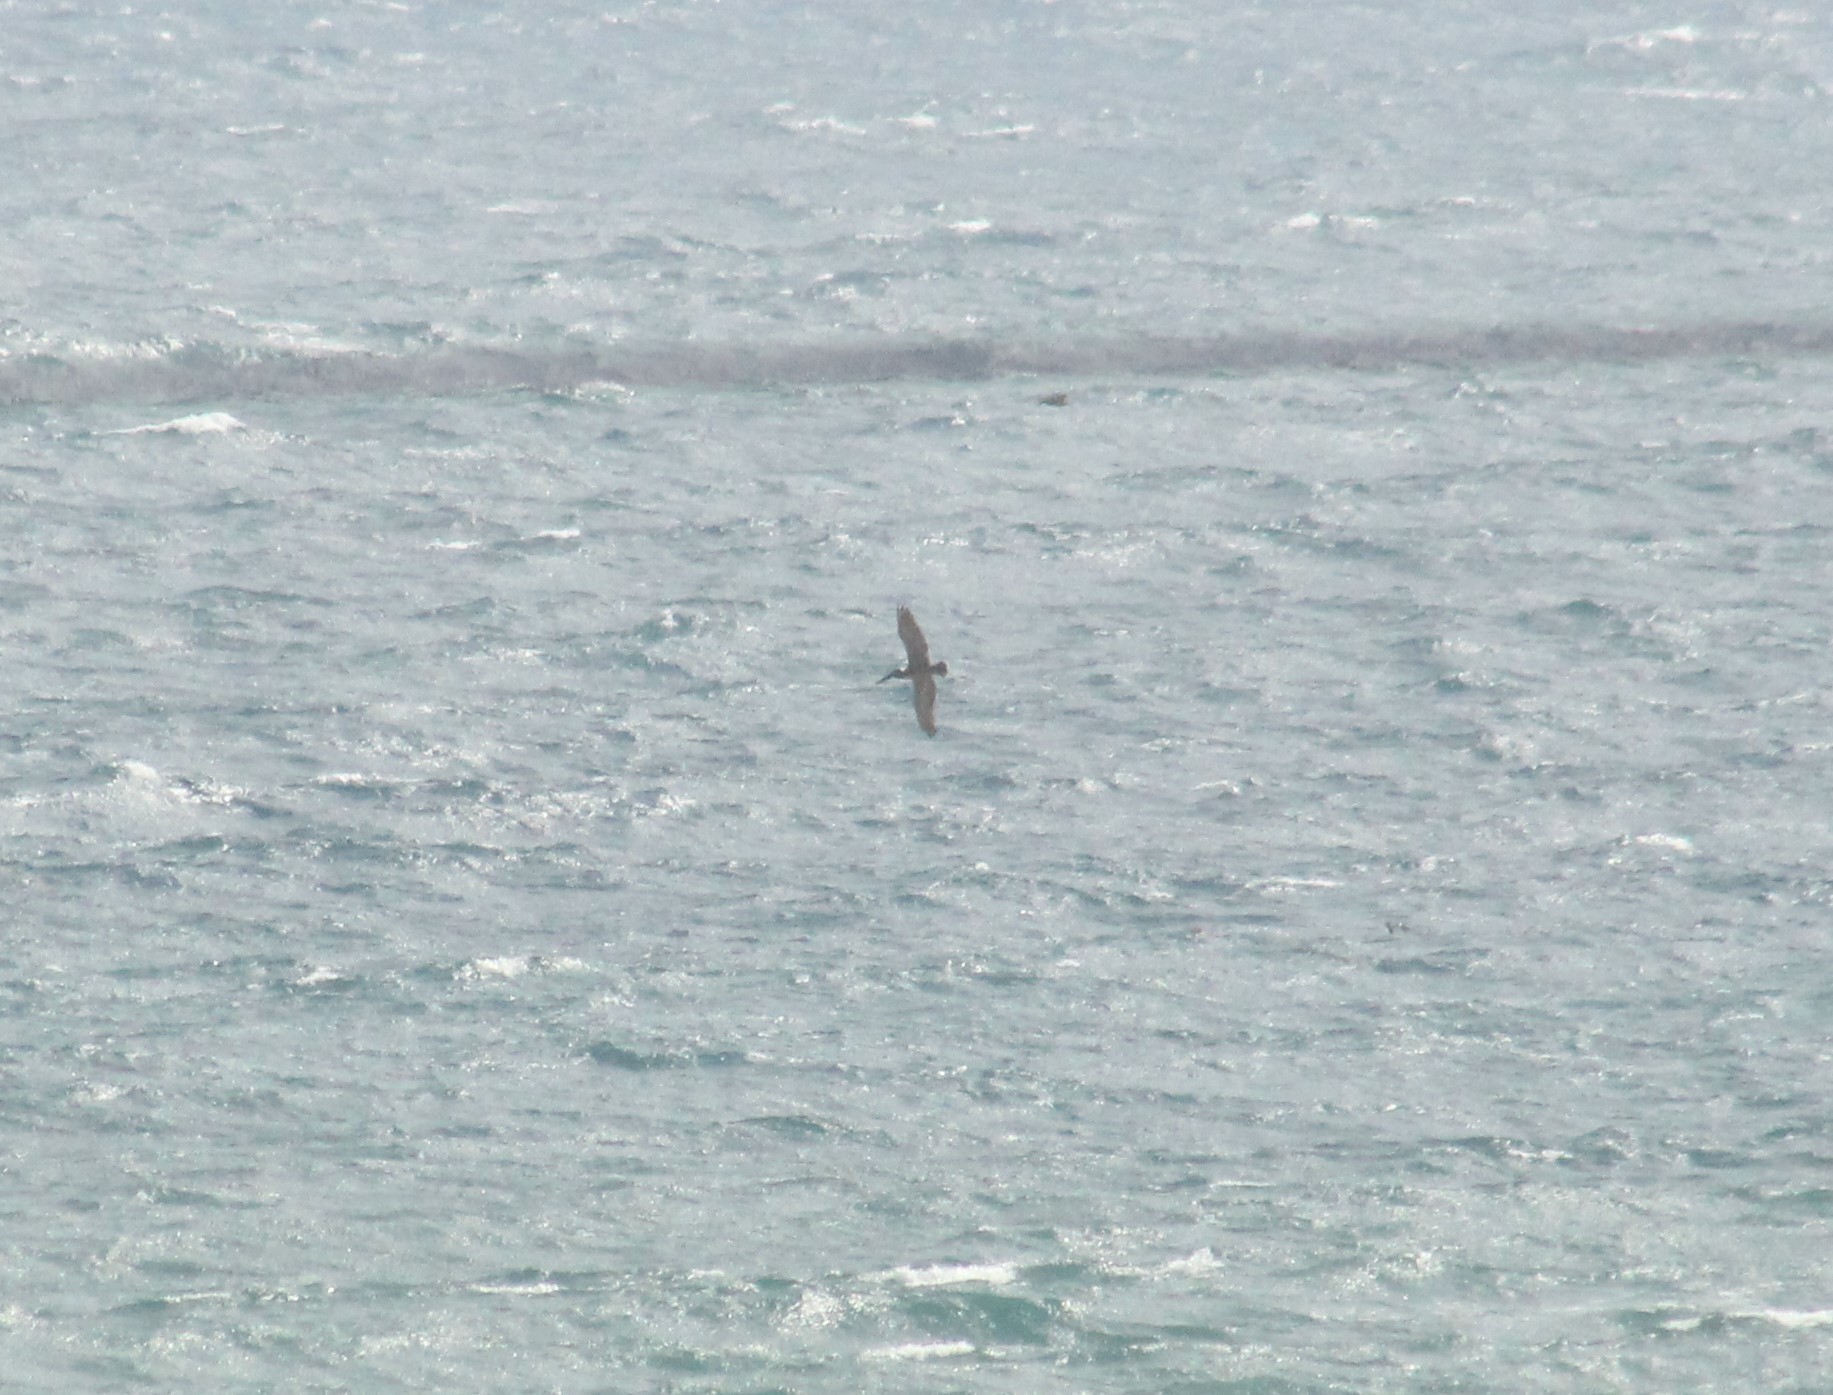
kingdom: Animalia
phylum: Chordata
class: Aves
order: Pelecaniformes
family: Pelecanidae
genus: Pelecanus
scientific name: Pelecanus occidentalis
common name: Brown pelican
